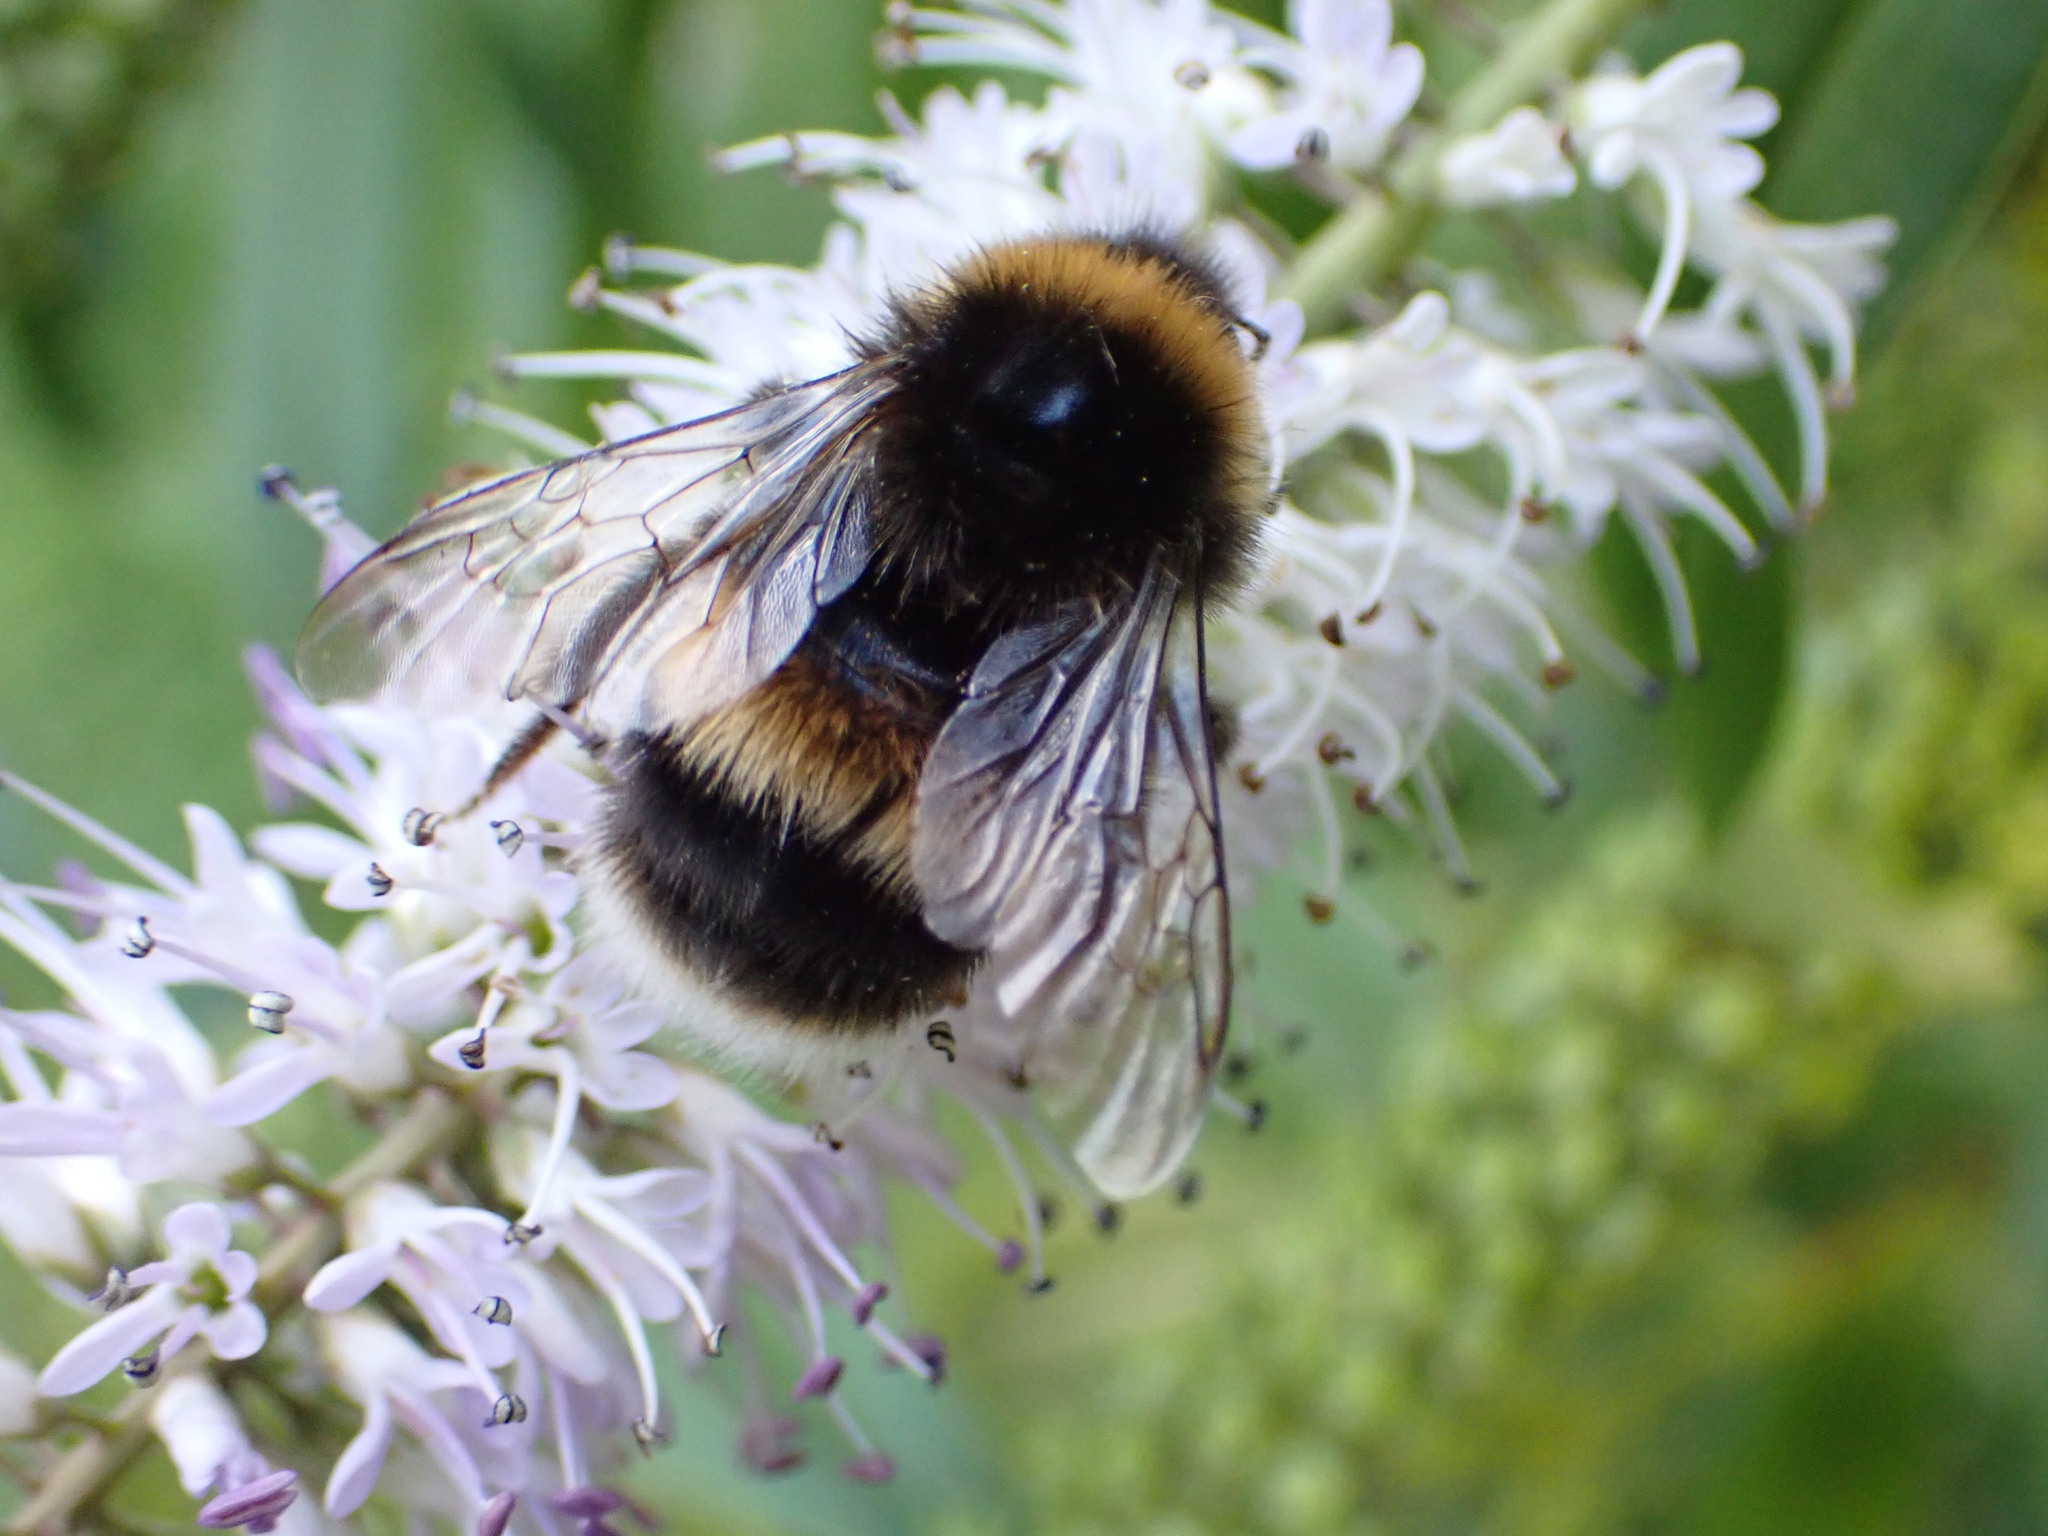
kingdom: Animalia
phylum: Arthropoda
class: Insecta
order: Hymenoptera
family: Apidae
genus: Bombus
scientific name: Bombus terrestris
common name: Buff-tailed bumblebee
